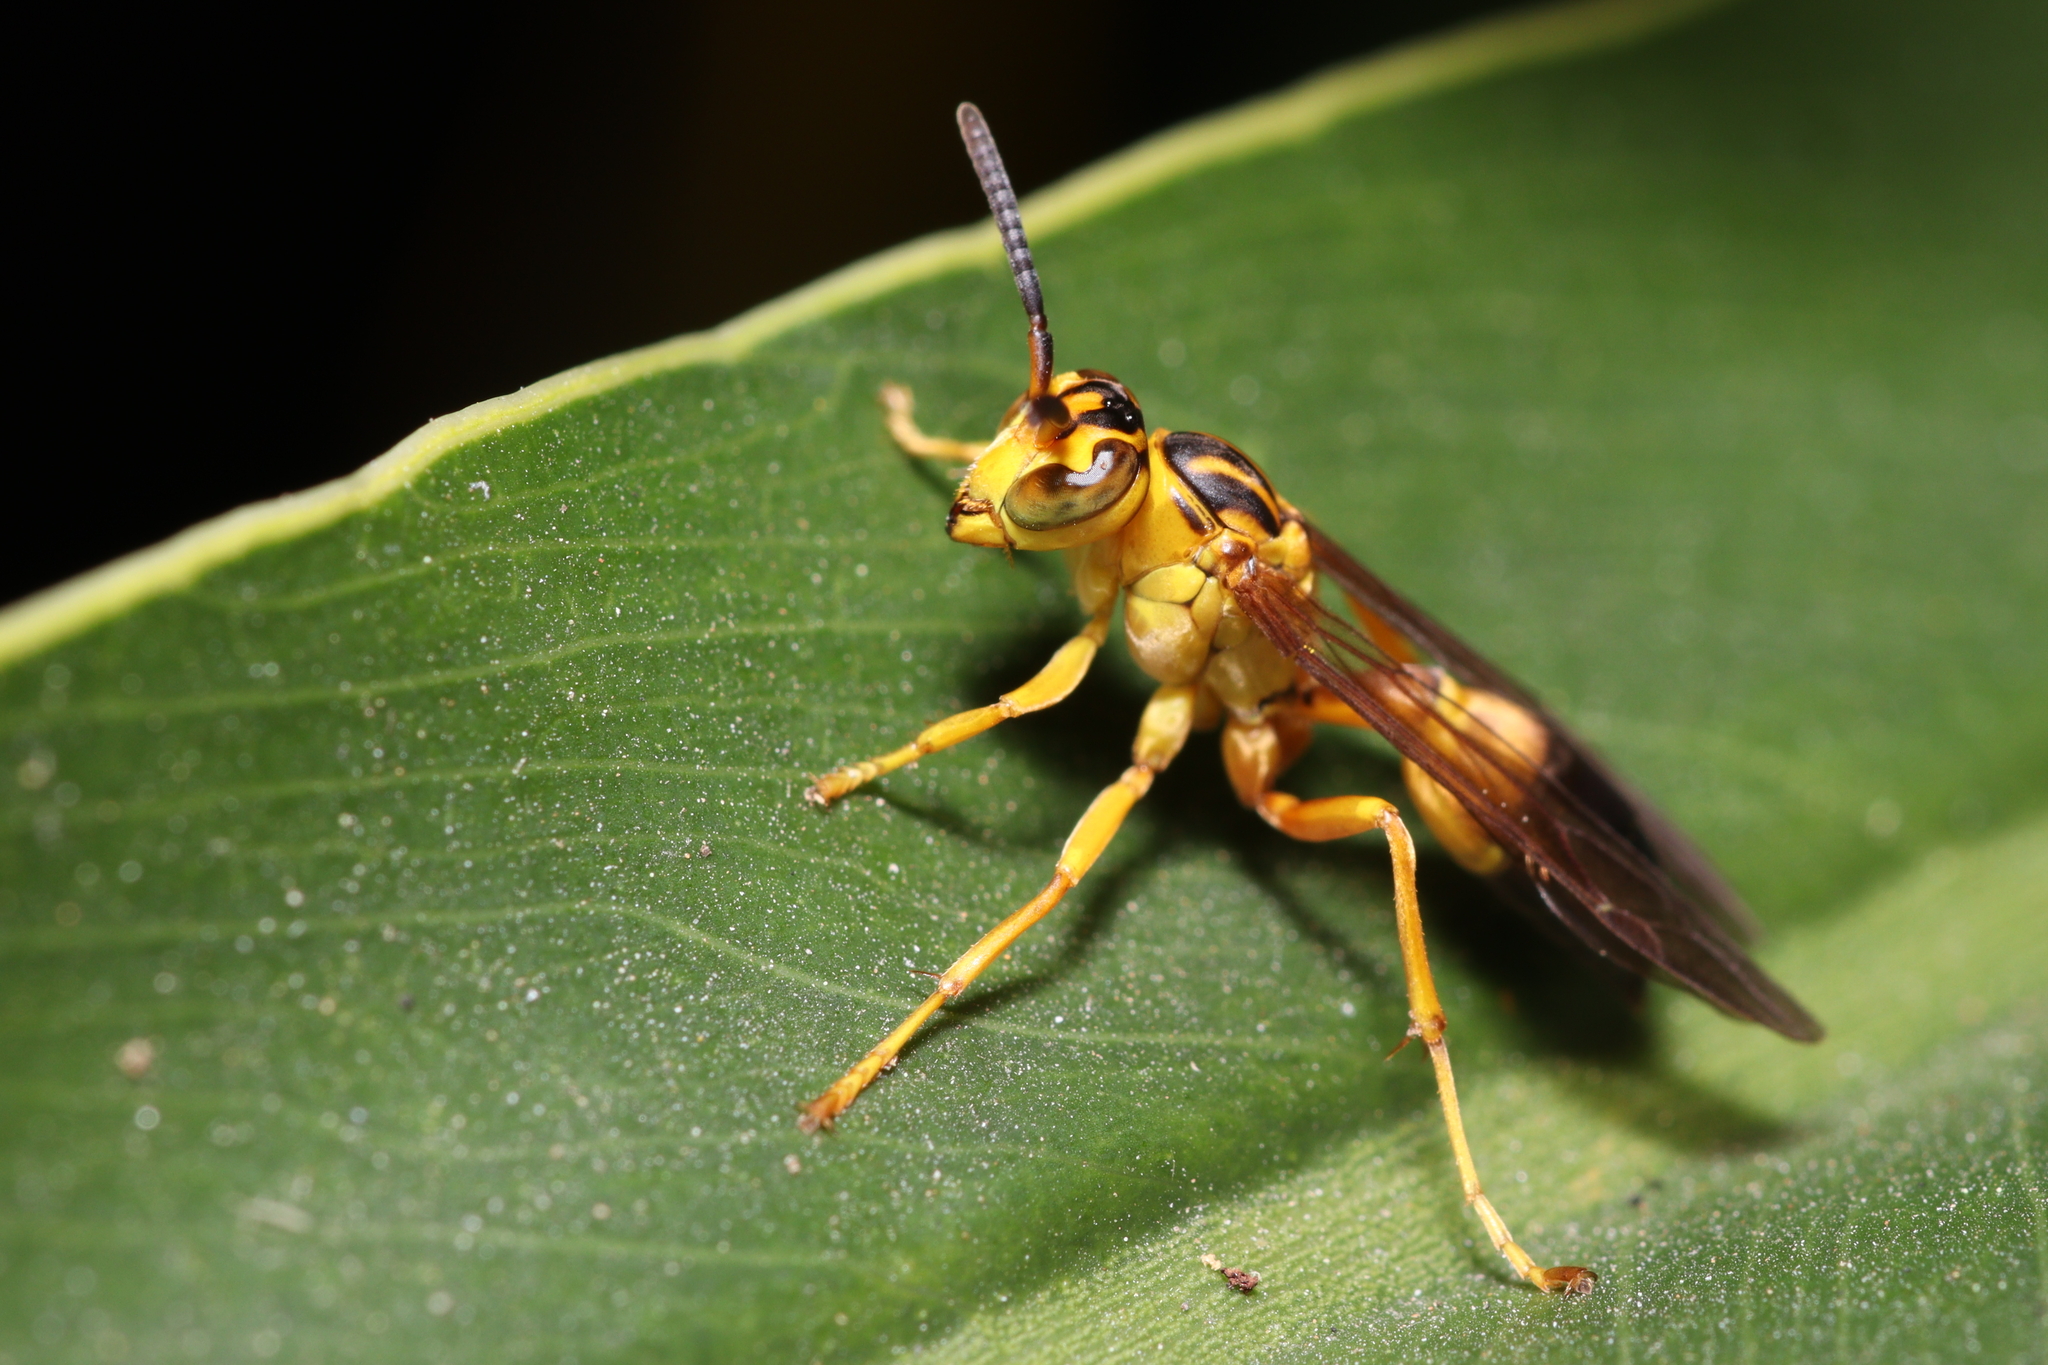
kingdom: Animalia
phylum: Arthropoda
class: Insecta
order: Hymenoptera
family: Vespidae
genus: Agelaia
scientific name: Agelaia pallipes
